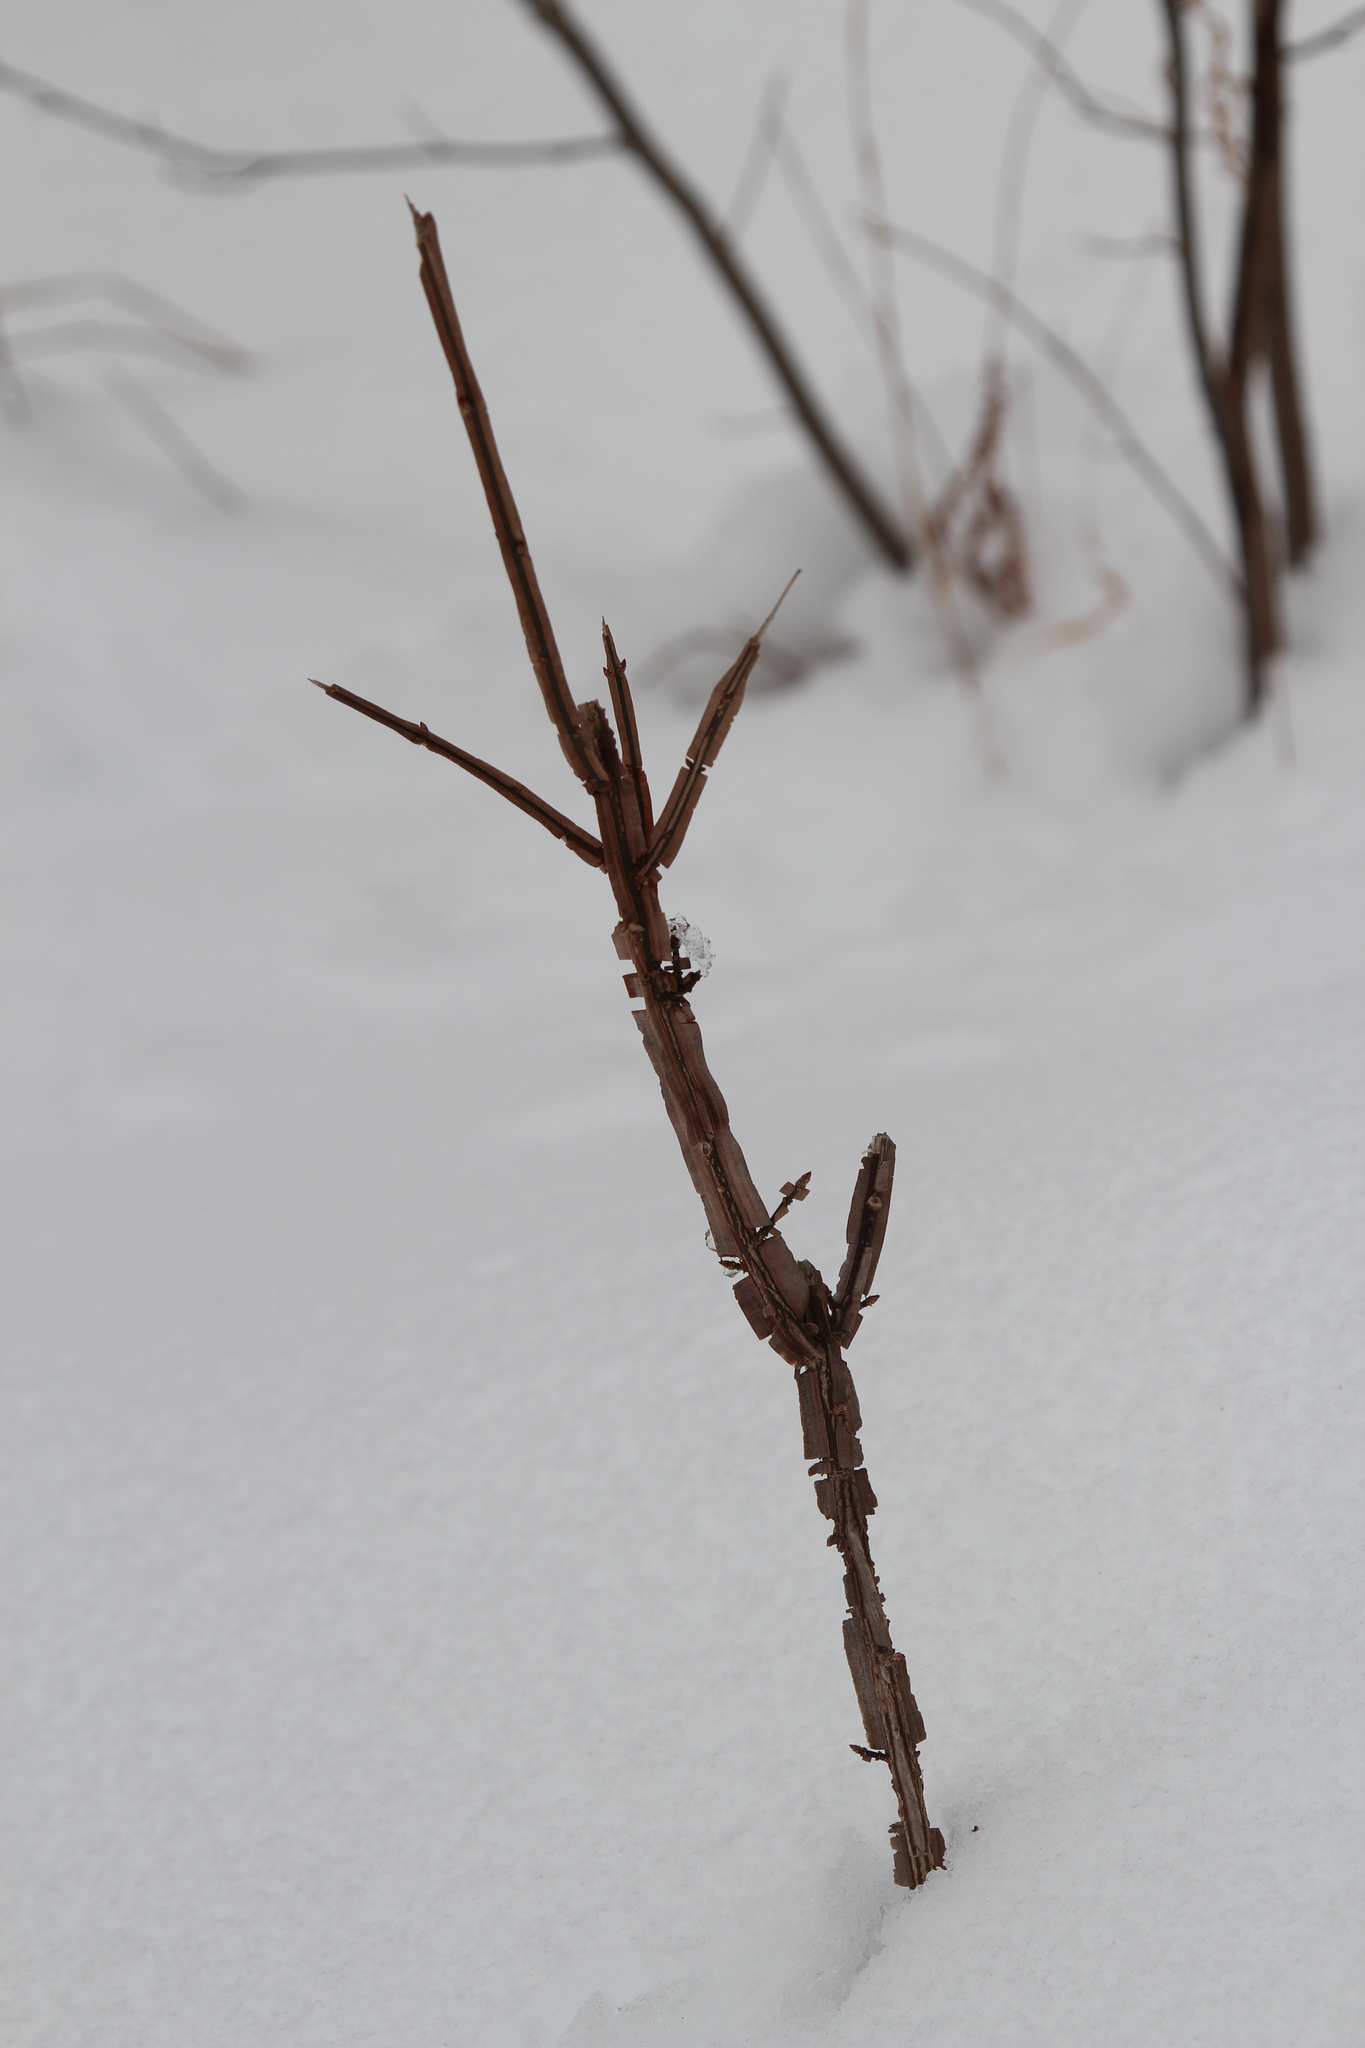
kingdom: Plantae
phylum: Tracheophyta
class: Magnoliopsida
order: Celastrales
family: Celastraceae
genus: Euonymus
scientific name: Euonymus alatus
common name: Winged euonymus
